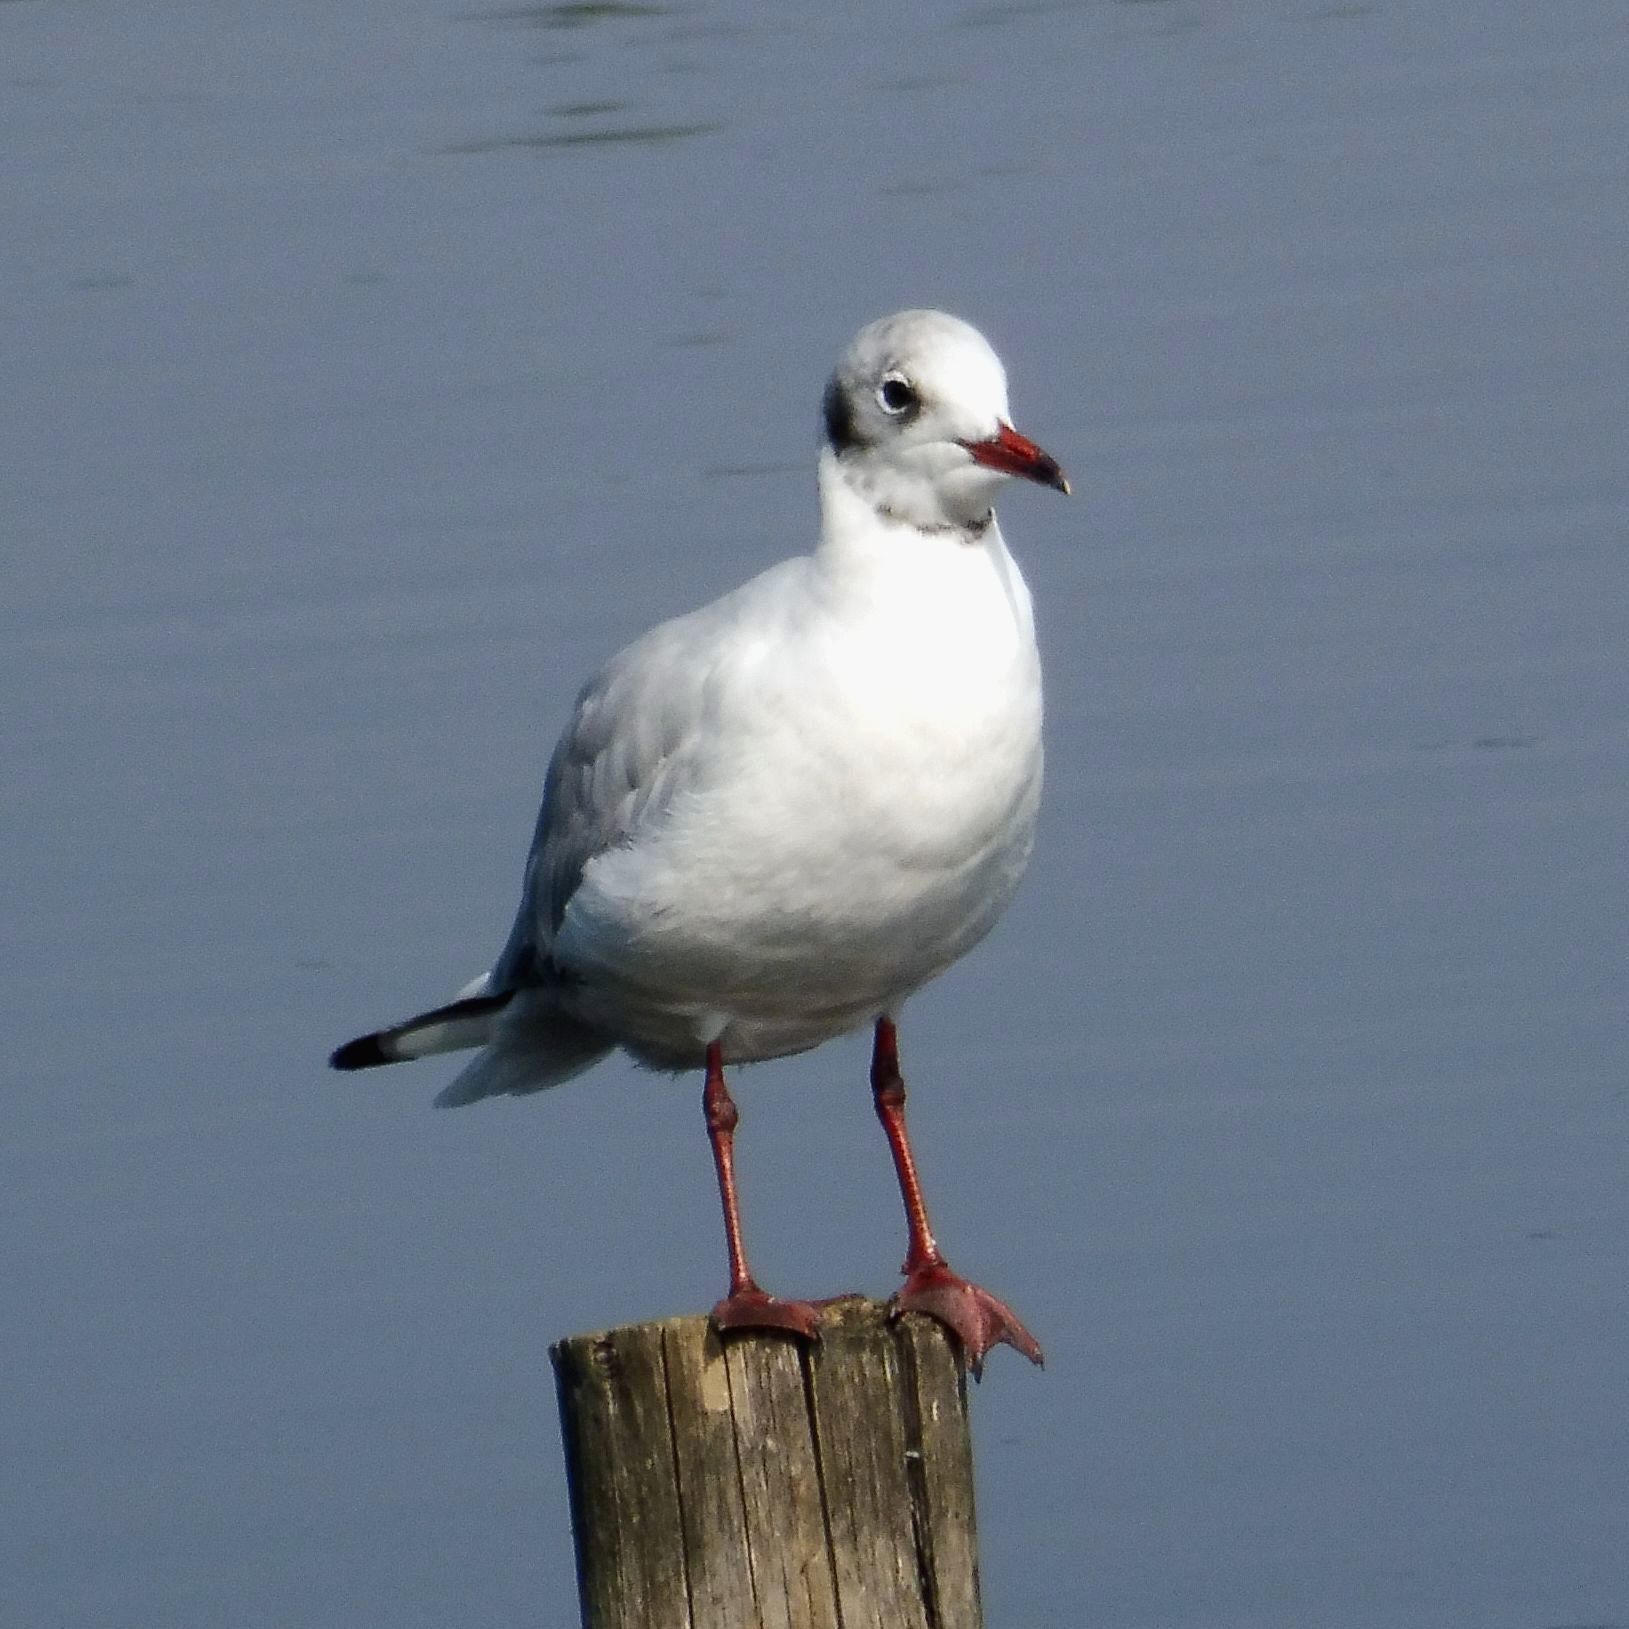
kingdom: Animalia
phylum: Chordata
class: Aves
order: Charadriiformes
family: Laridae
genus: Chroicocephalus
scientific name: Chroicocephalus ridibundus
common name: Black-headed gull
